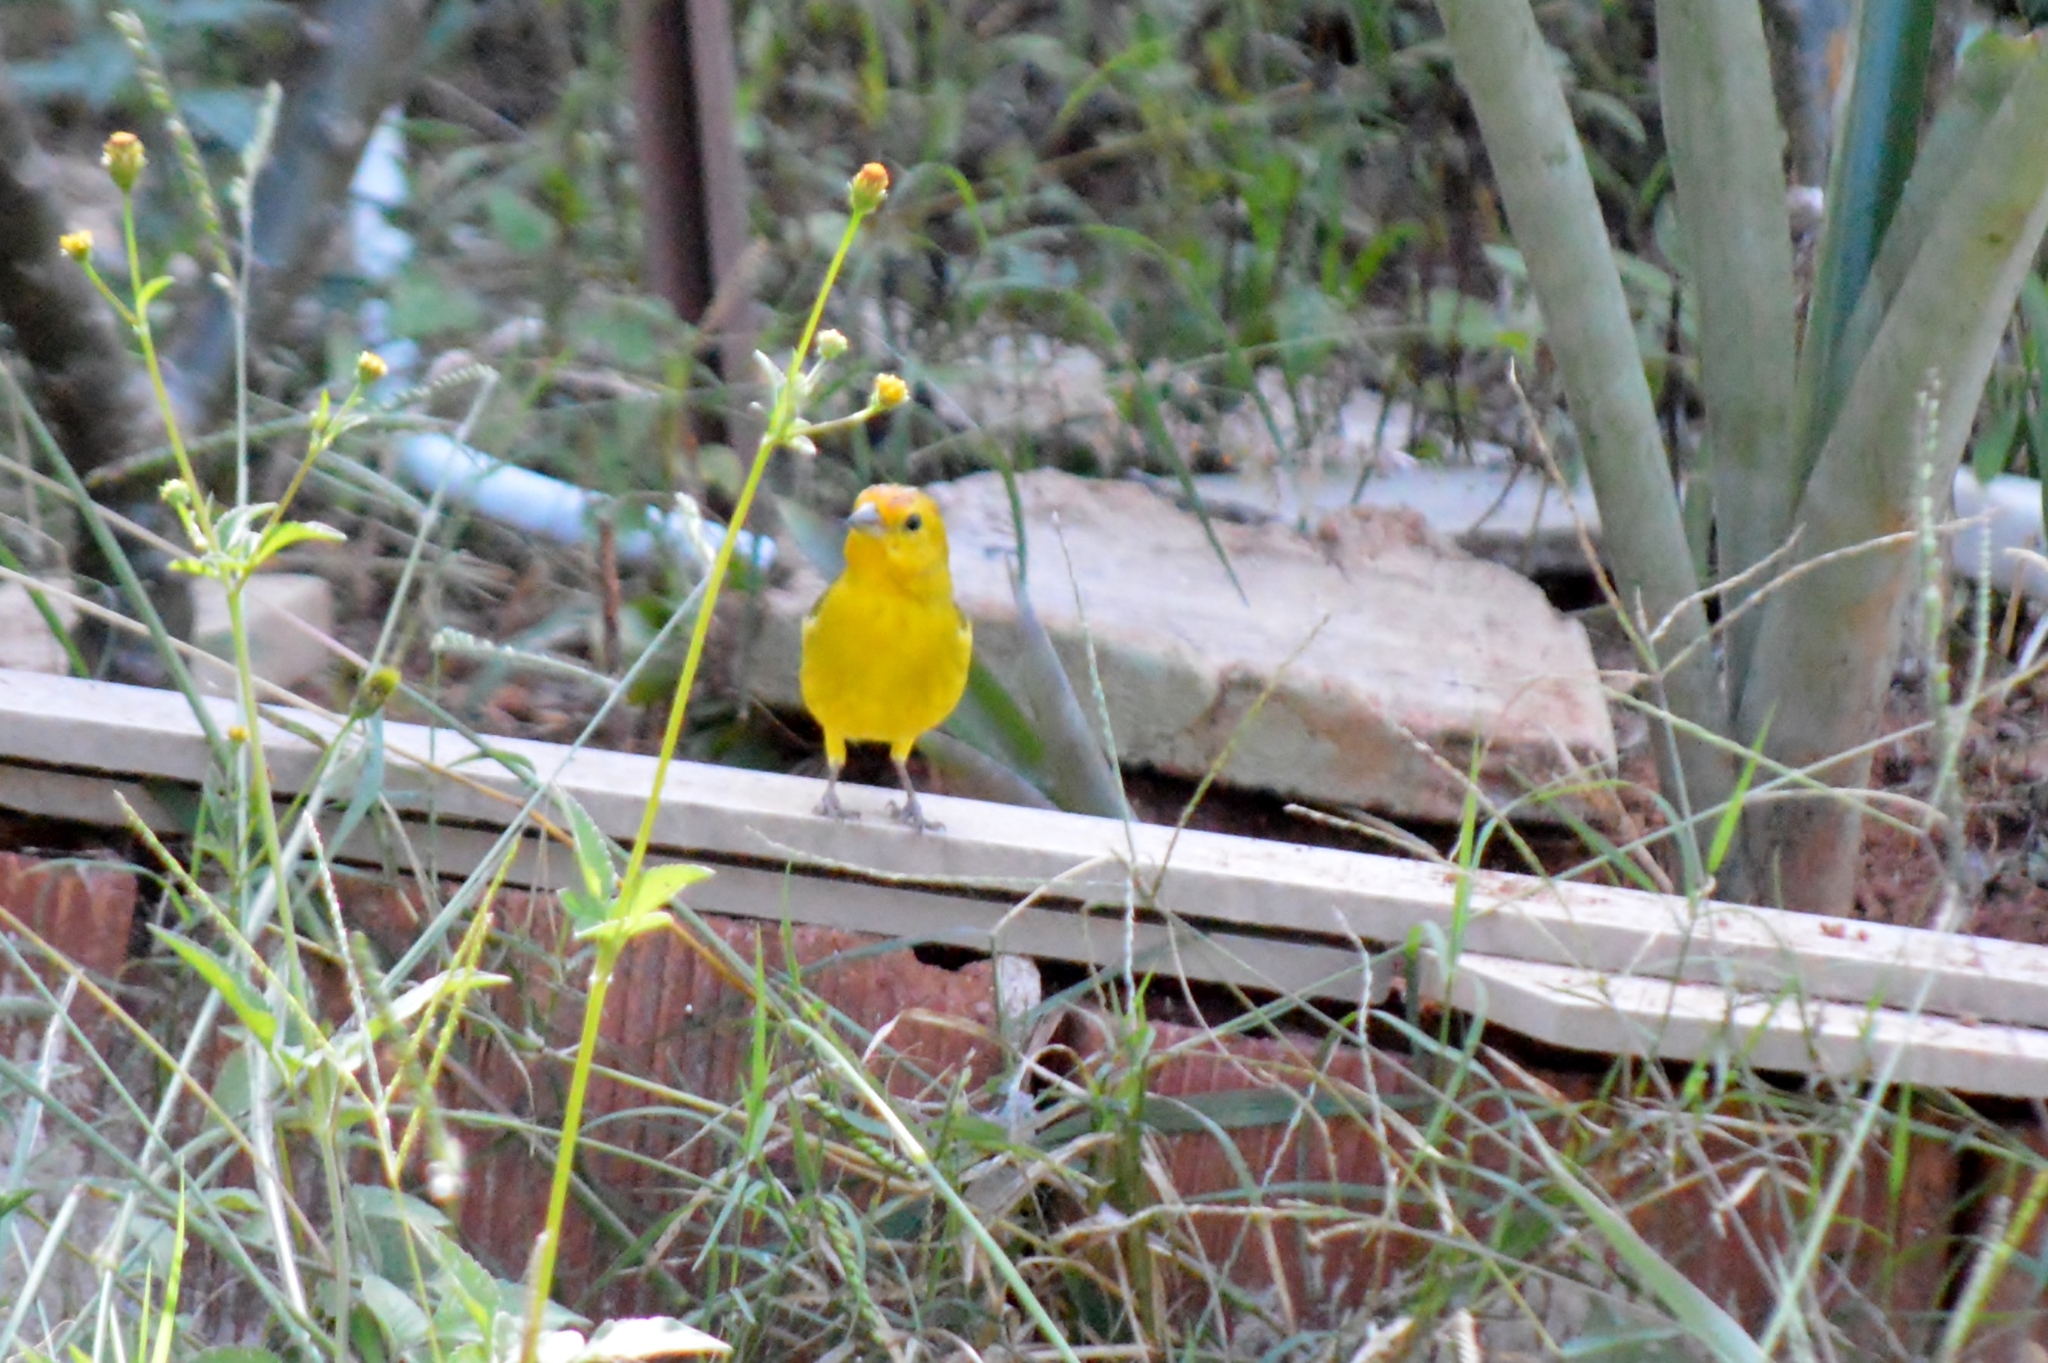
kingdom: Animalia
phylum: Chordata
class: Aves
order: Passeriformes
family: Thraupidae
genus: Sicalis
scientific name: Sicalis flaveola
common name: Saffron finch
